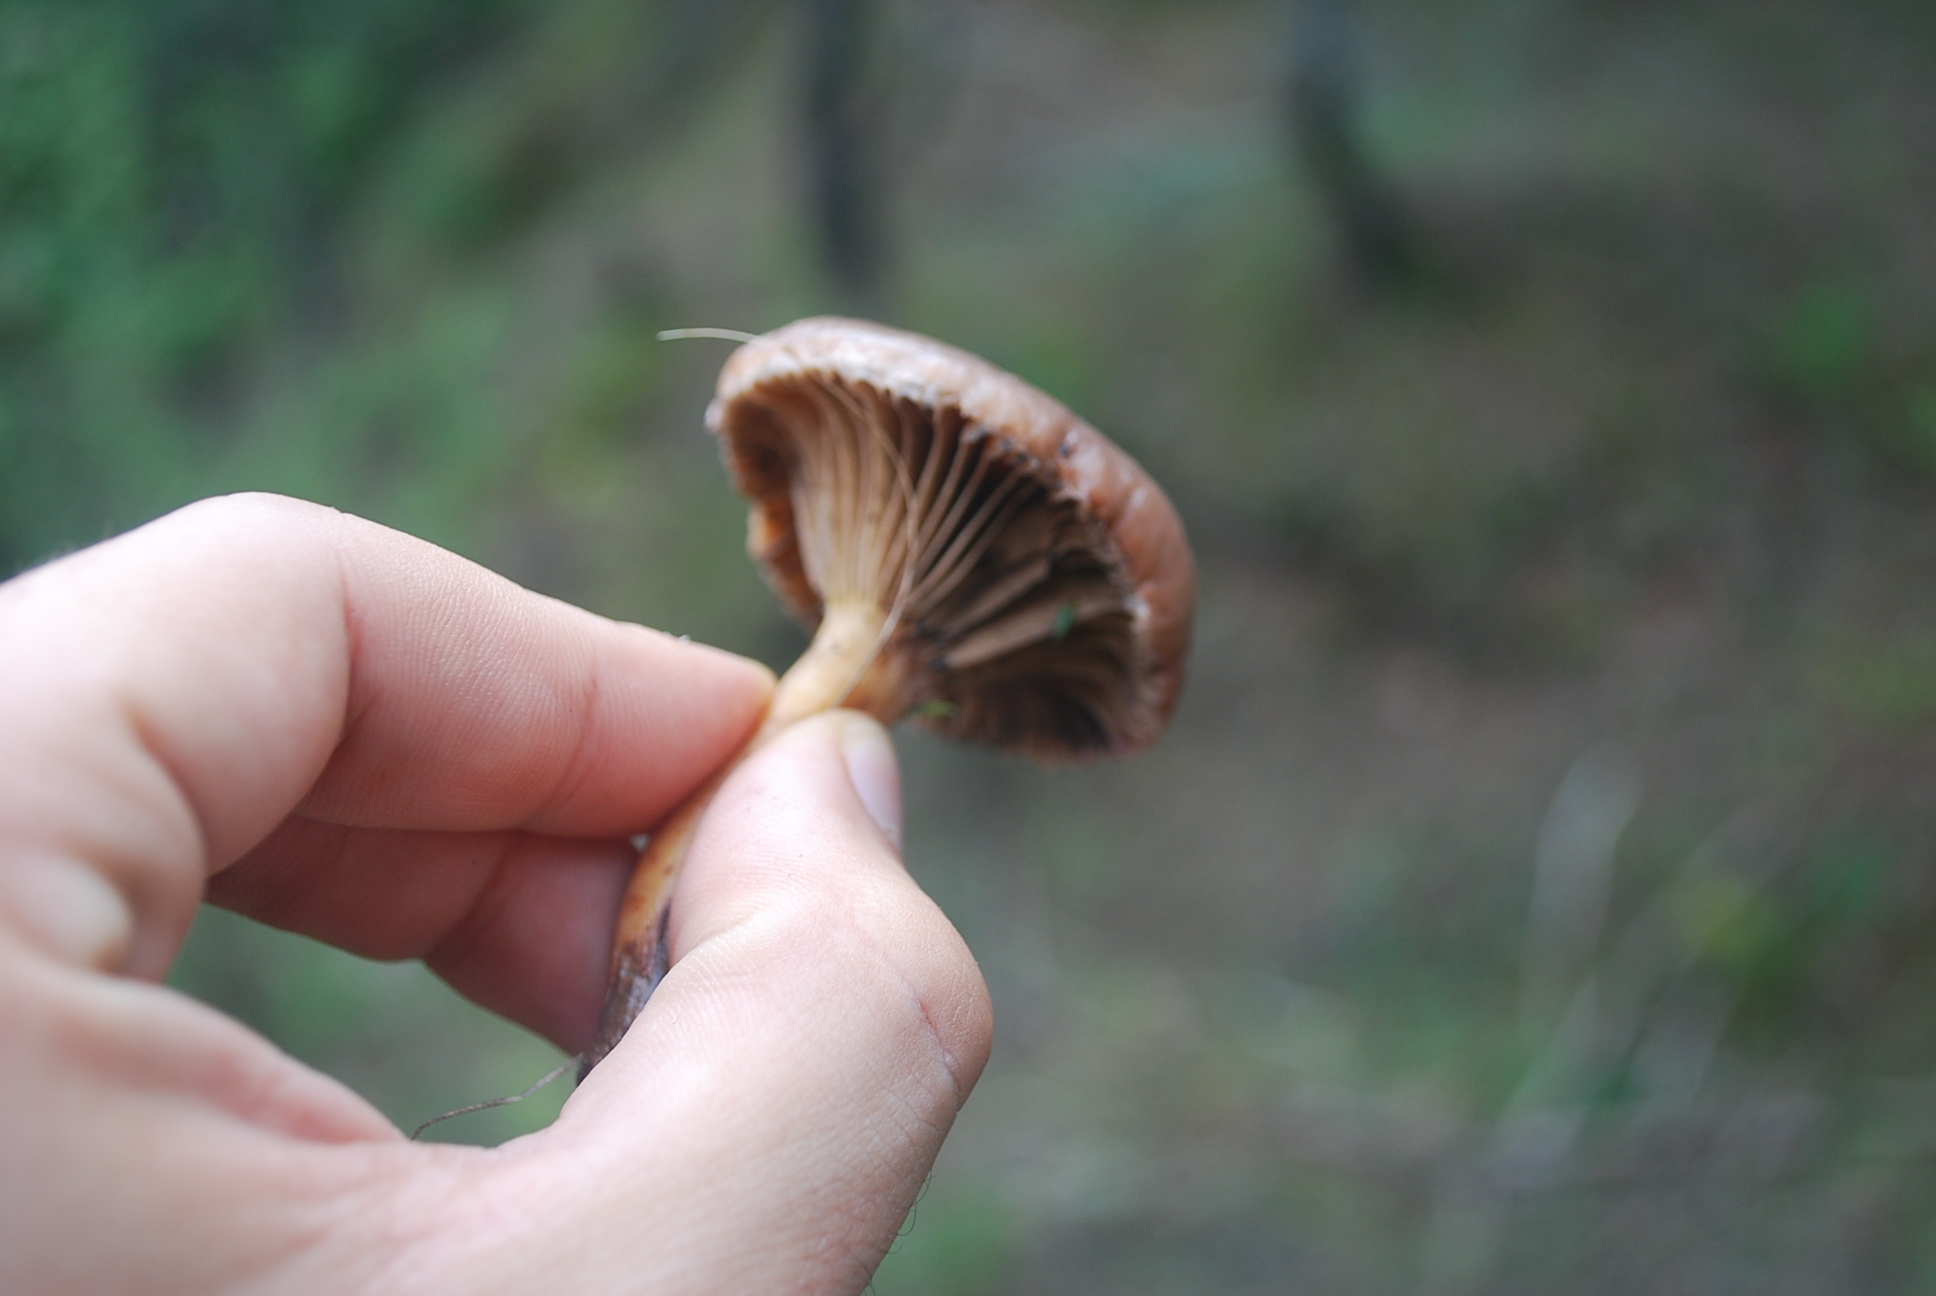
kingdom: Fungi
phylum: Basidiomycota
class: Agaricomycetes
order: Boletales
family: Gomphidiaceae
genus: Chroogomphus
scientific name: Chroogomphus rutilus
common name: Copper spike
